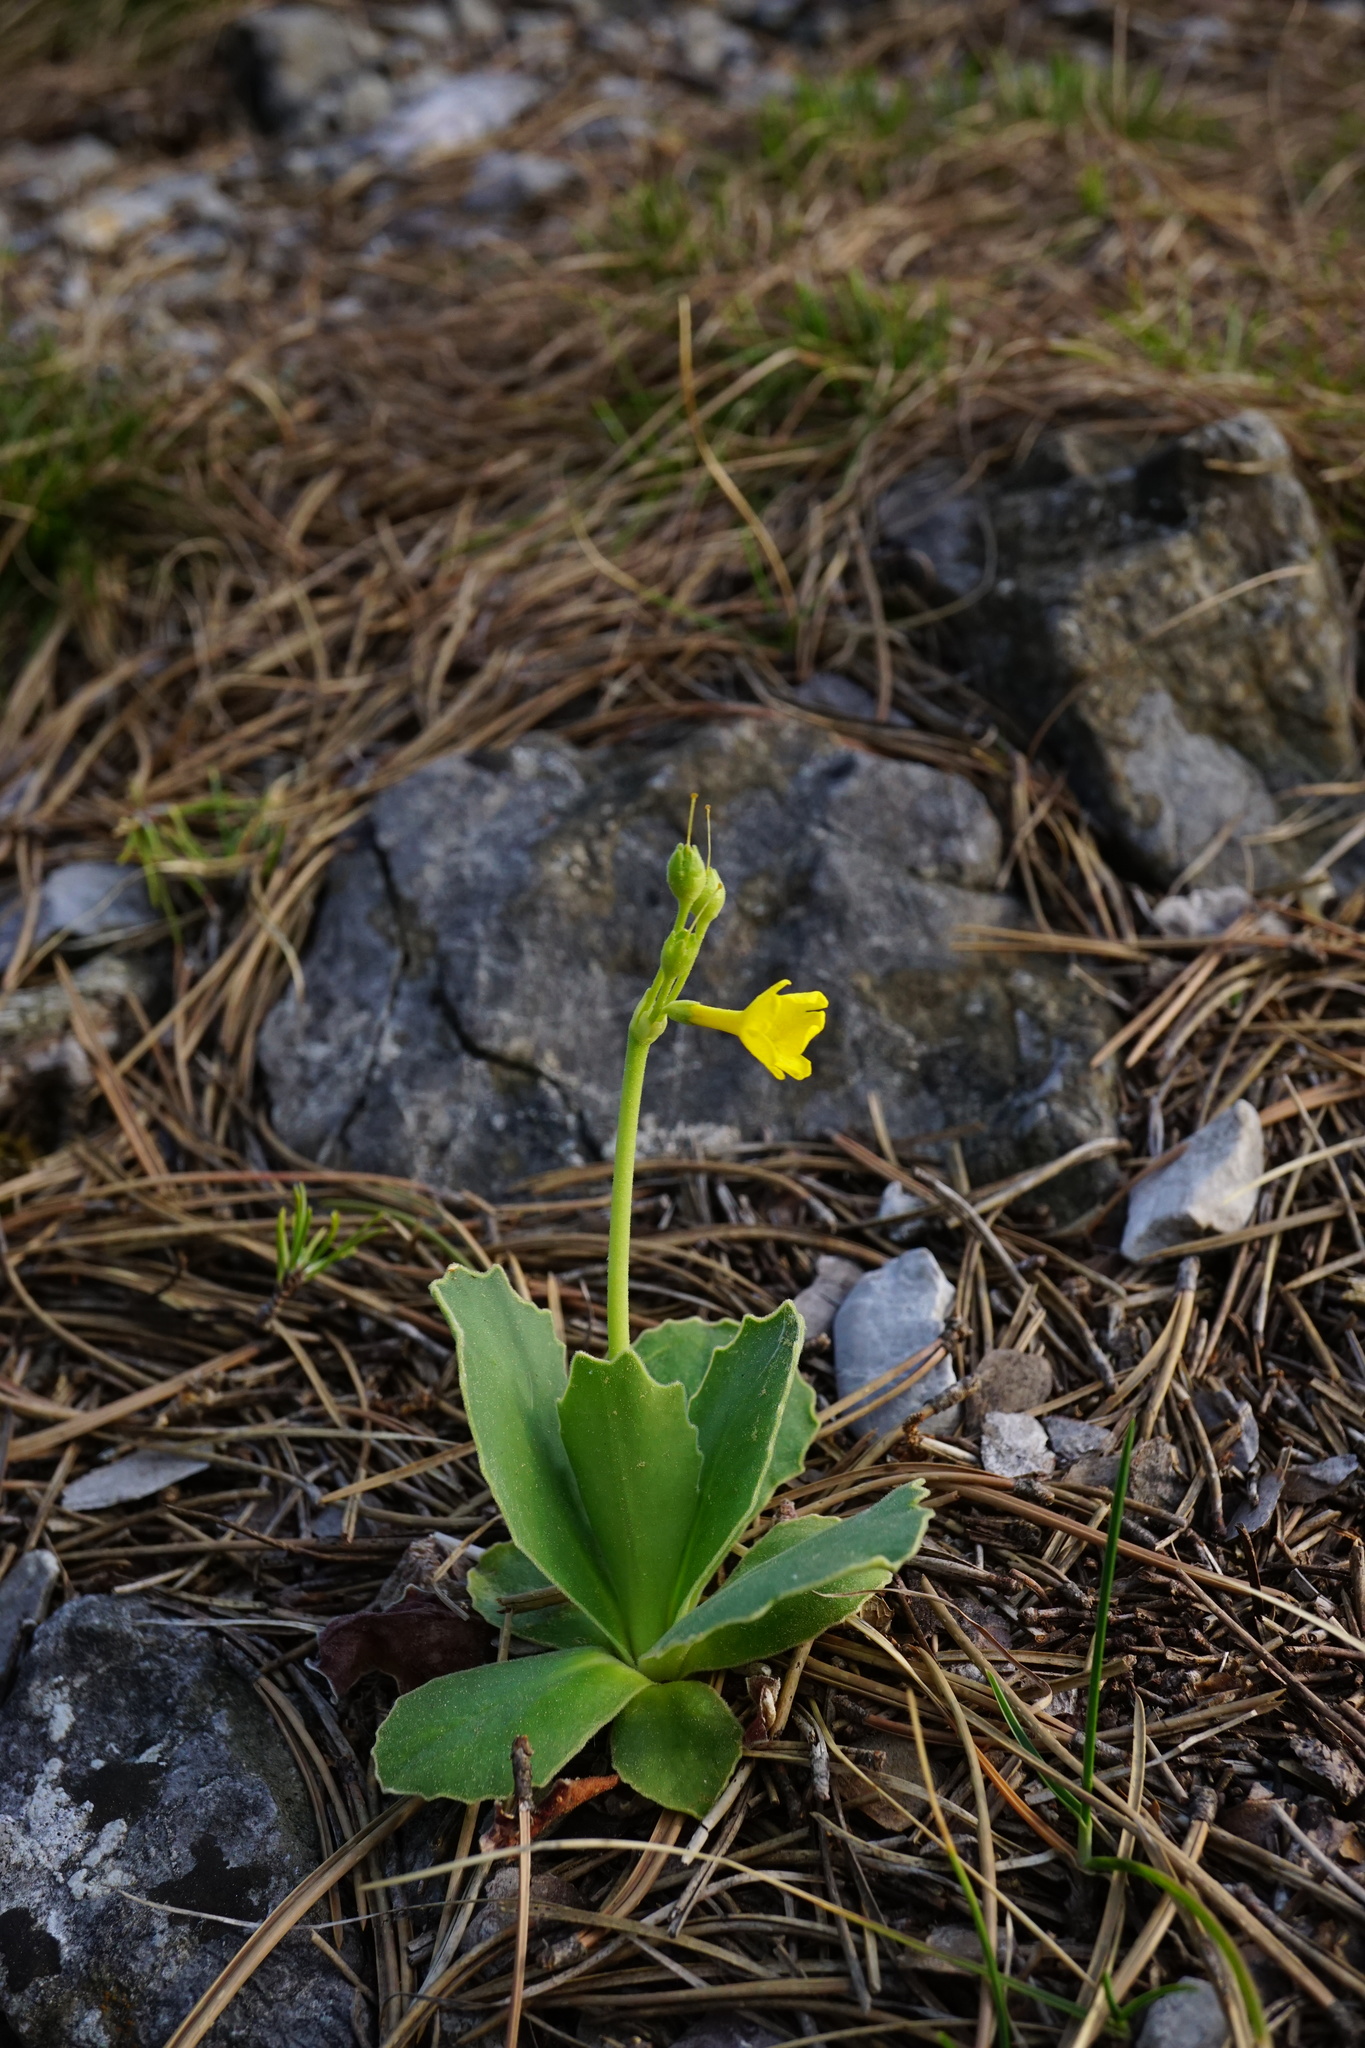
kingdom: Plantae
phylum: Tracheophyta
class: Magnoliopsida
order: Ericales
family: Primulaceae
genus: Primula
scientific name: Primula auricula
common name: Auricula
